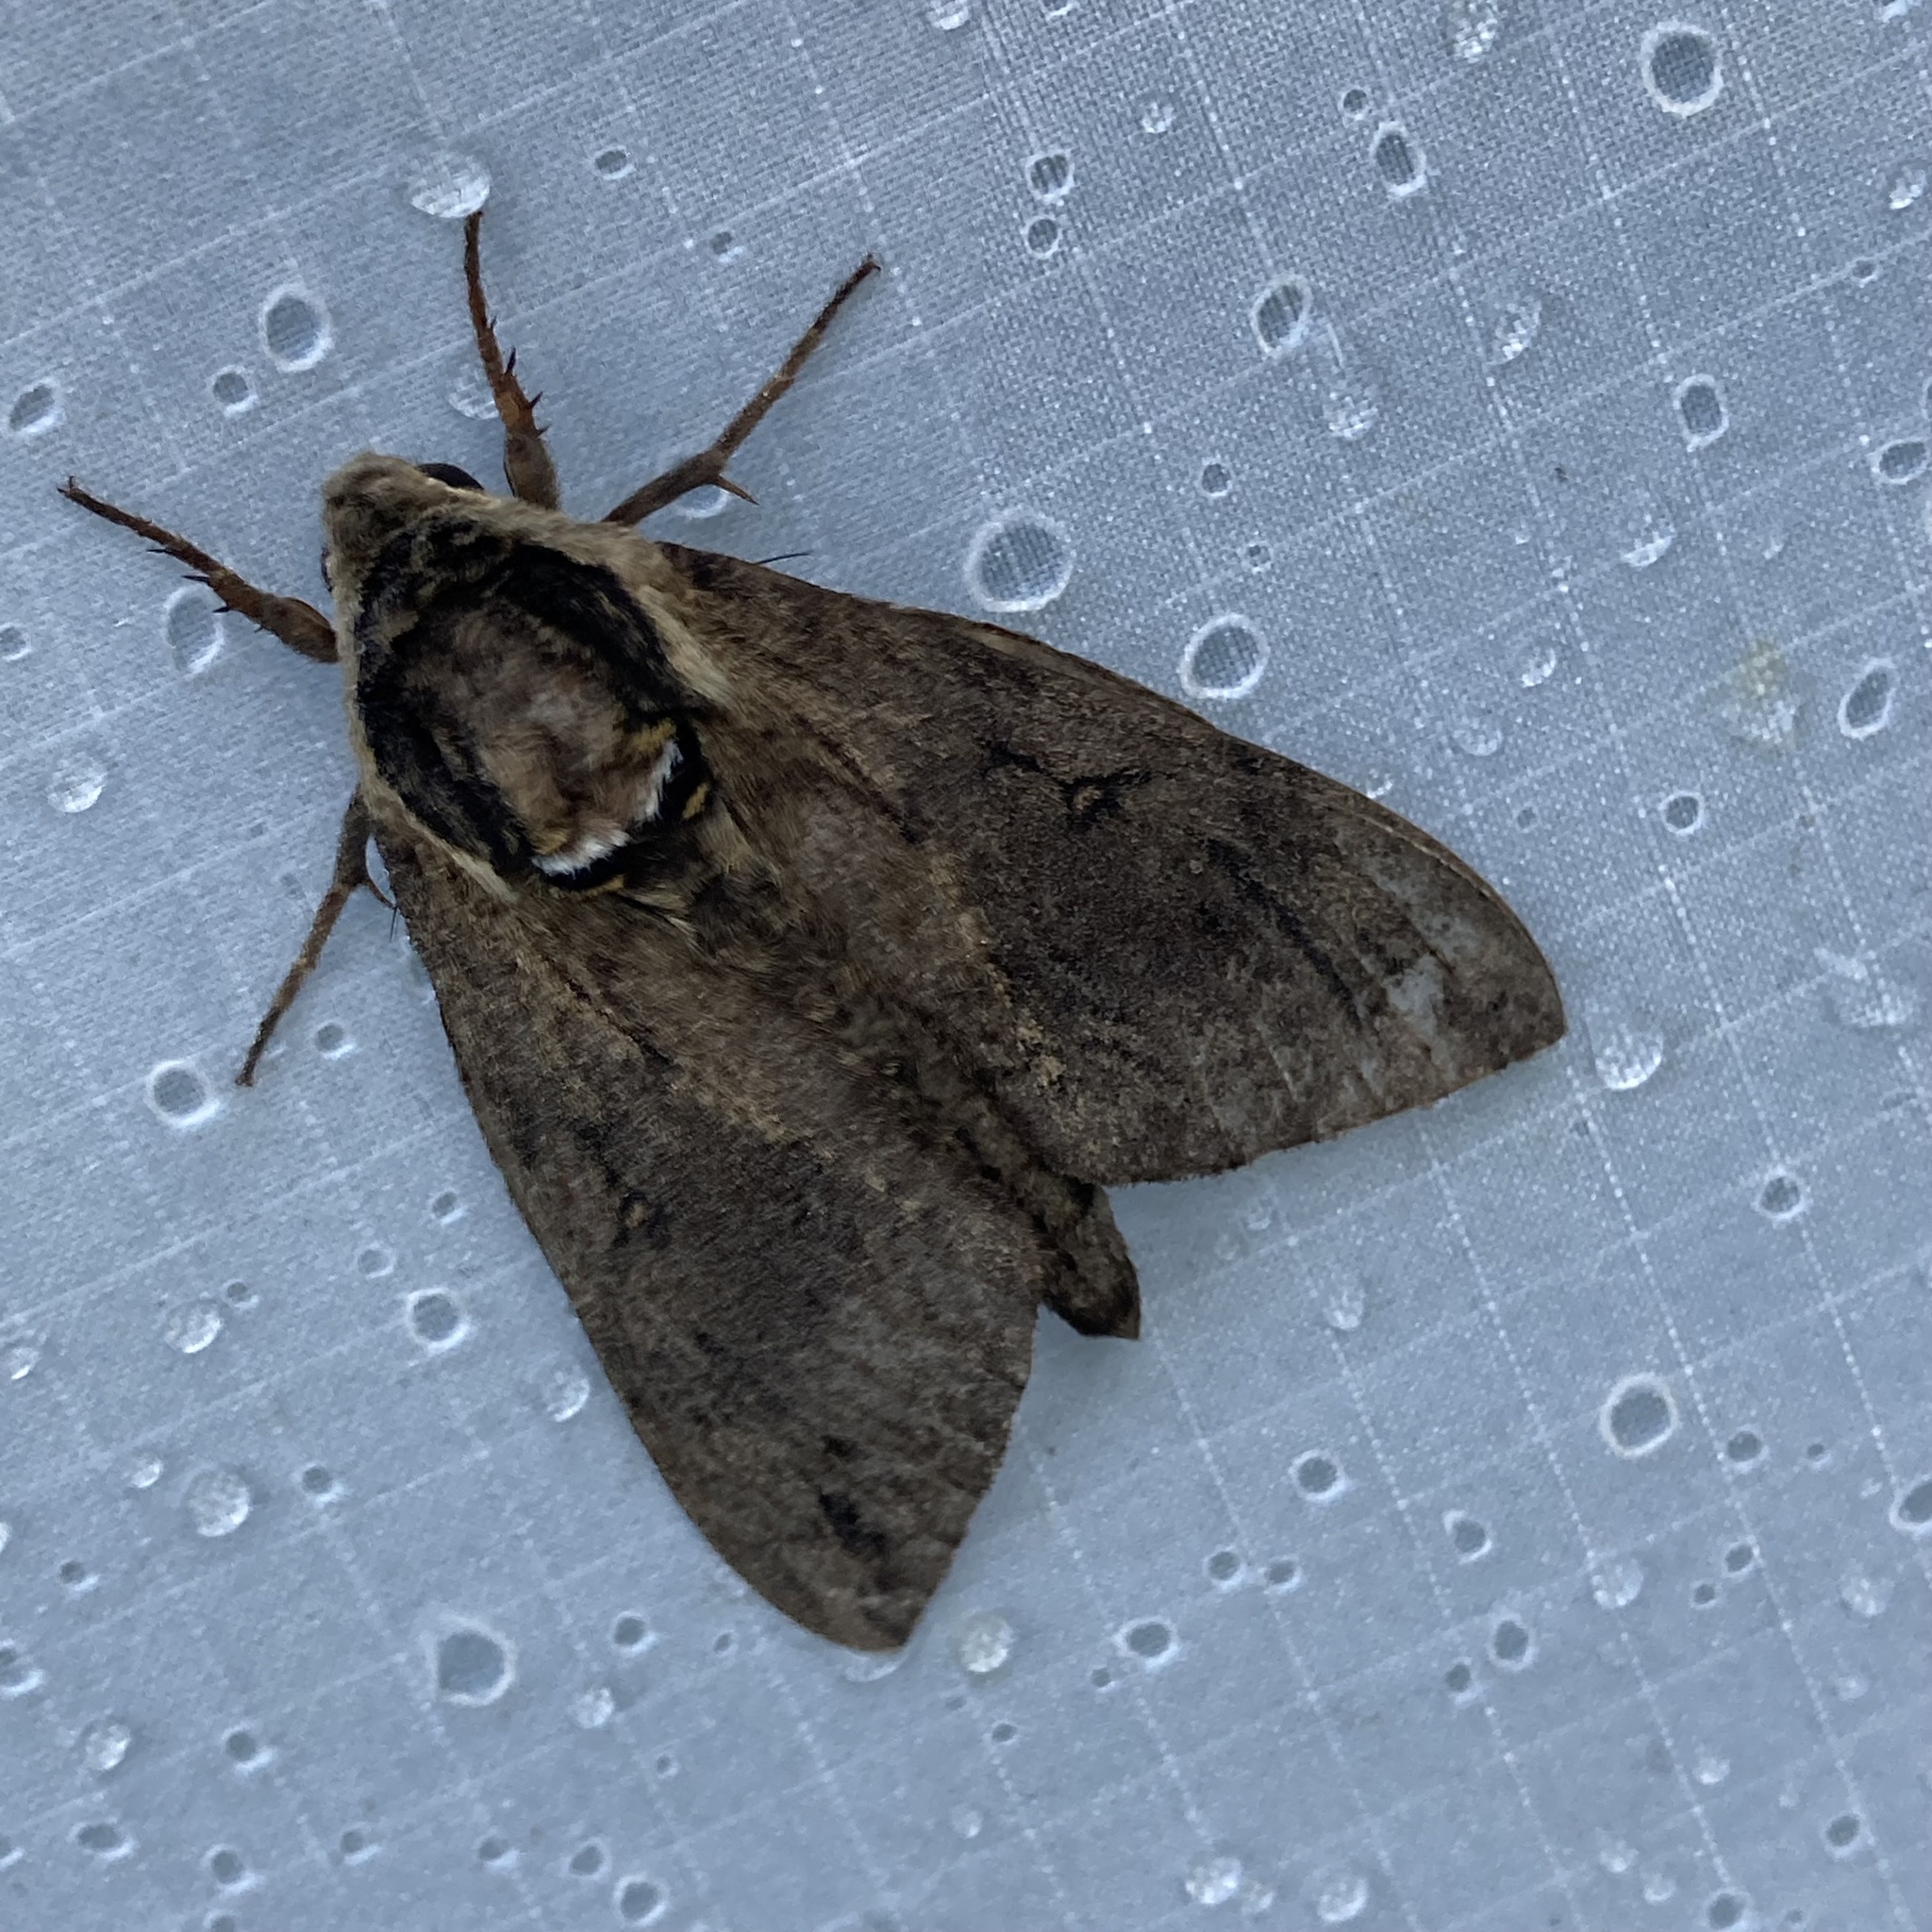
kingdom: Animalia
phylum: Arthropoda
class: Insecta
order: Lepidoptera
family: Sphingidae
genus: Ceratomia
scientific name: Ceratomia catalpae
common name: Catalpa hornworm
